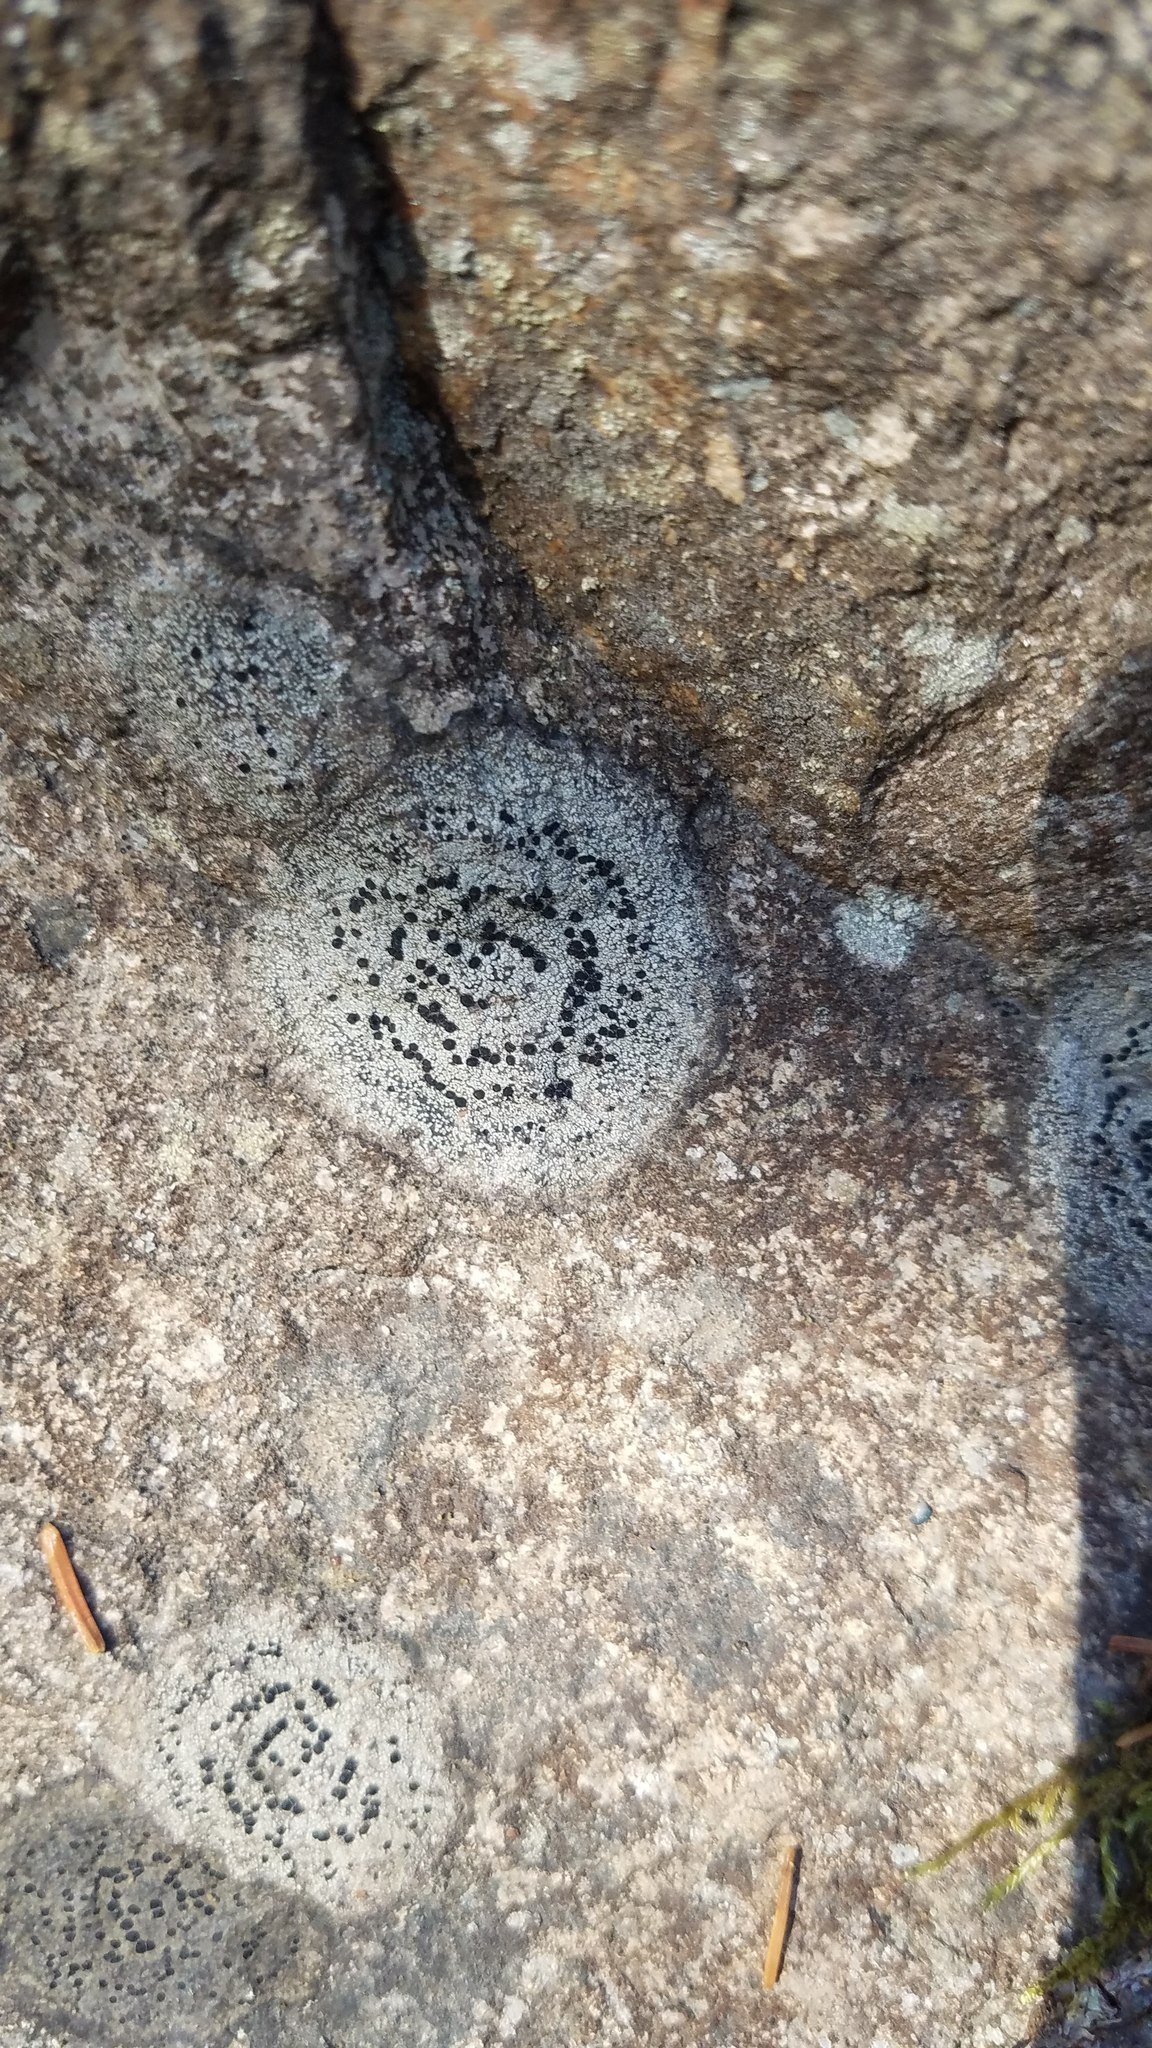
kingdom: Fungi
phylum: Ascomycota
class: Lecanoromycetes
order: Lecideales
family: Lecideaceae
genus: Porpidia
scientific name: Porpidia crustulata
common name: Concentric boulder lichen
